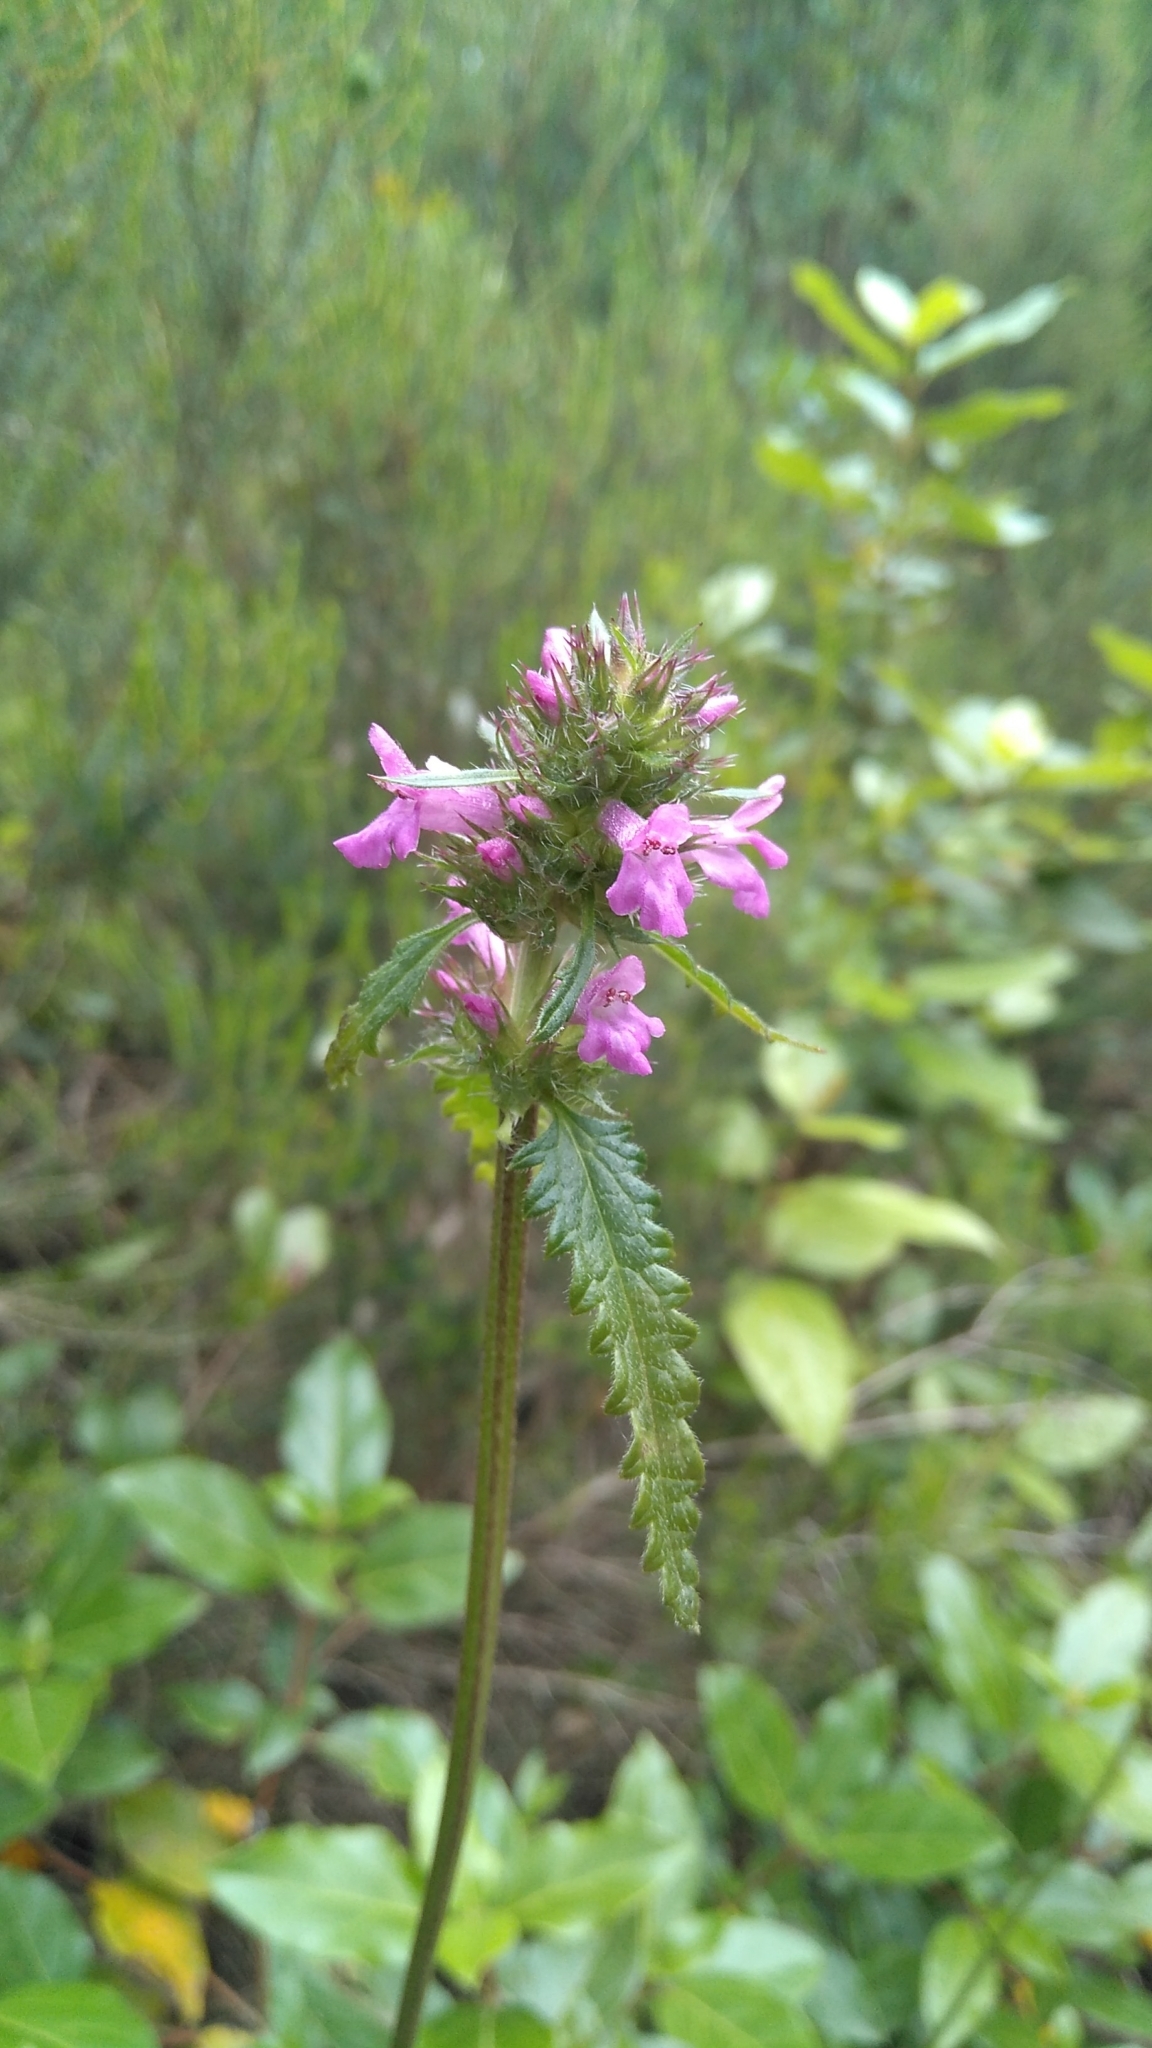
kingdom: Plantae
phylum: Tracheophyta
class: Magnoliopsida
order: Lamiales
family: Lamiaceae
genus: Betonica
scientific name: Betonica officinalis
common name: Bishop's-wort
